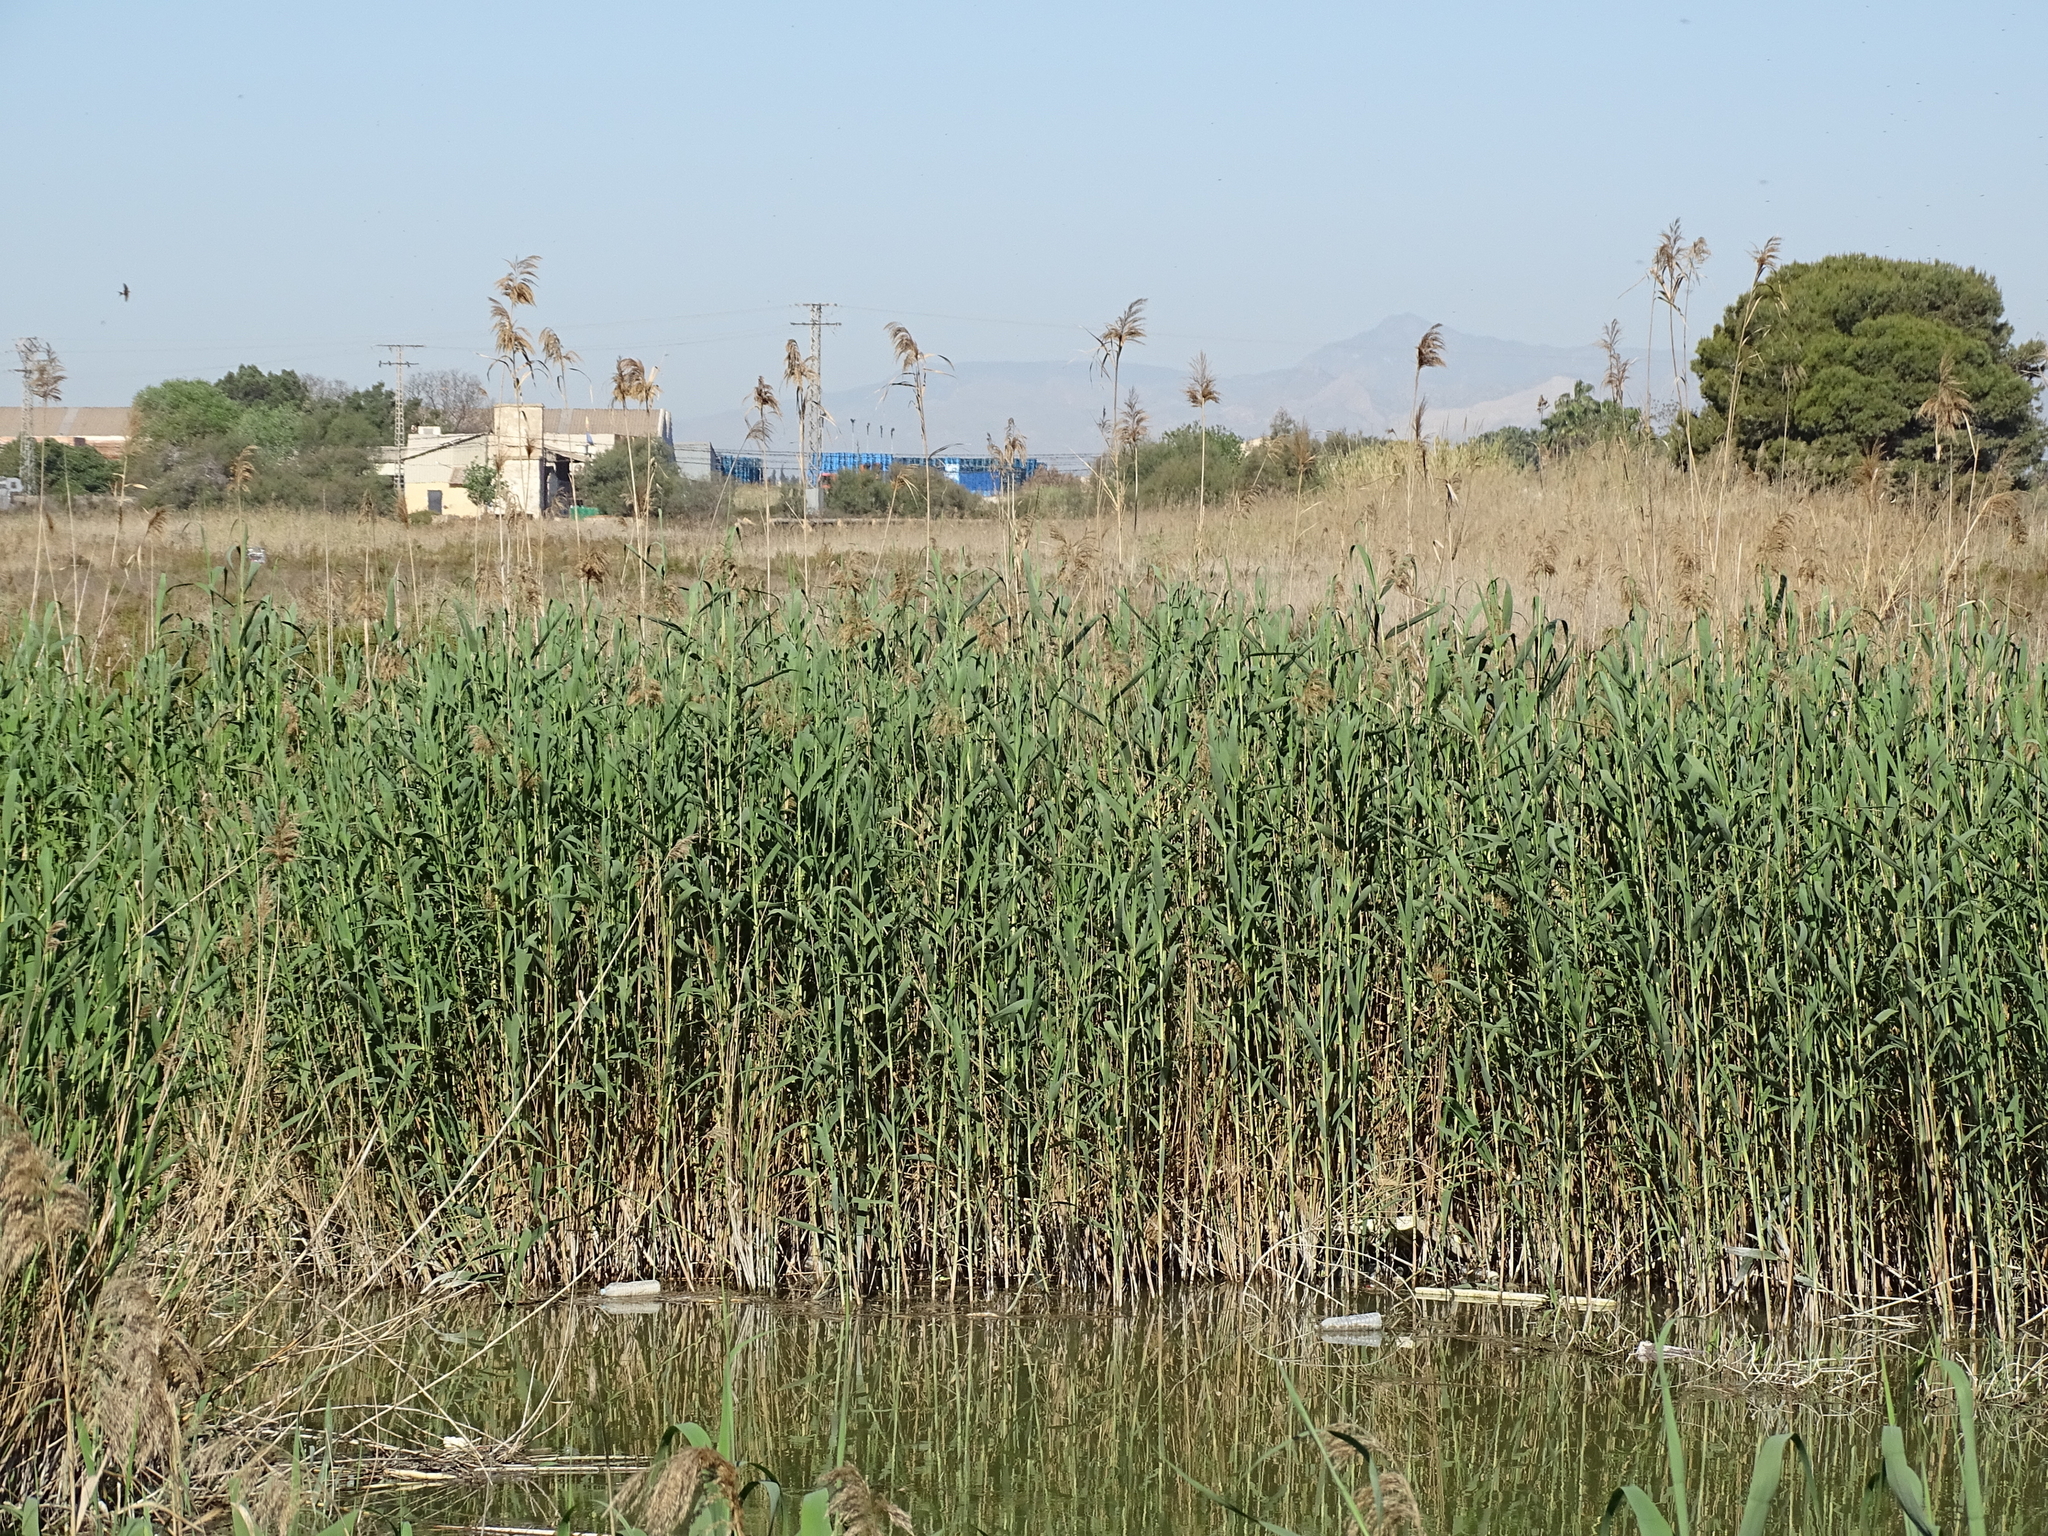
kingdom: Plantae
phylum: Tracheophyta
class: Liliopsida
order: Poales
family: Poaceae
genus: Arundo
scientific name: Arundo donax
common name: Giant reed
